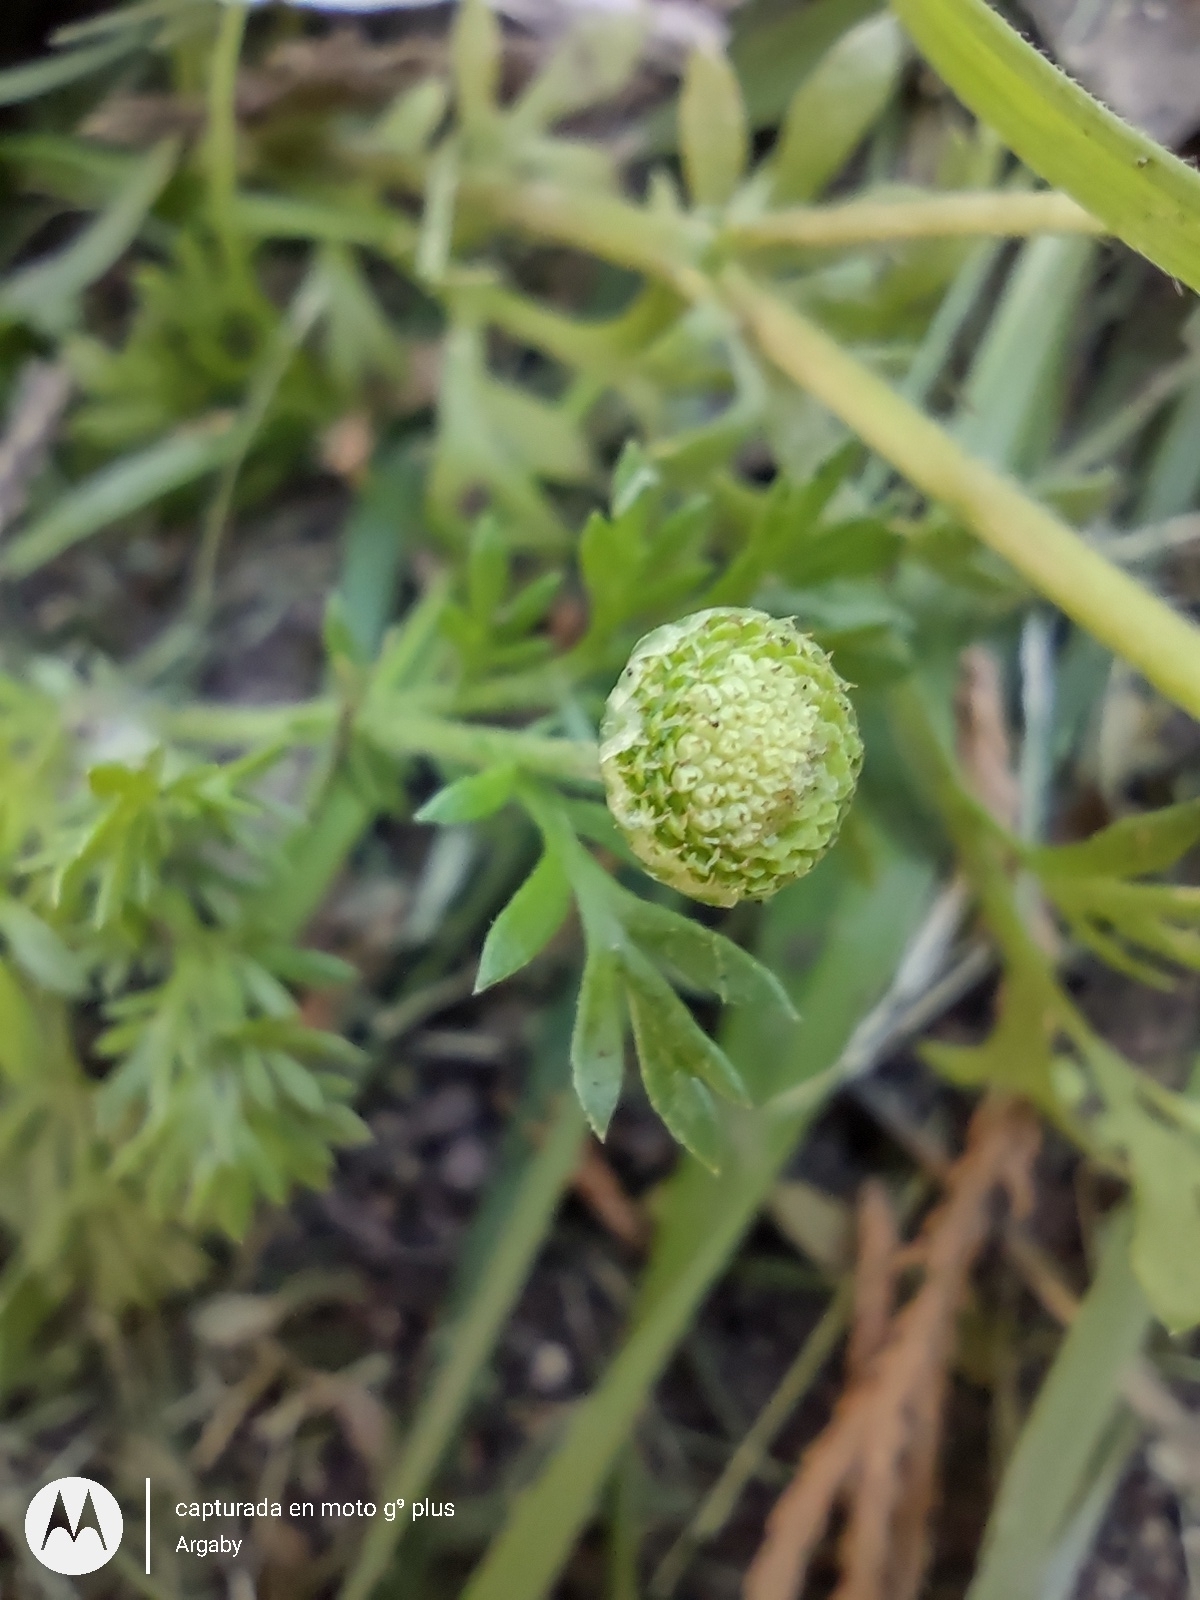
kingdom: Plantae
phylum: Tracheophyta
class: Magnoliopsida
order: Asterales
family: Asteraceae
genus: Cotula
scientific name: Cotula australis
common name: Australian waterbuttons
